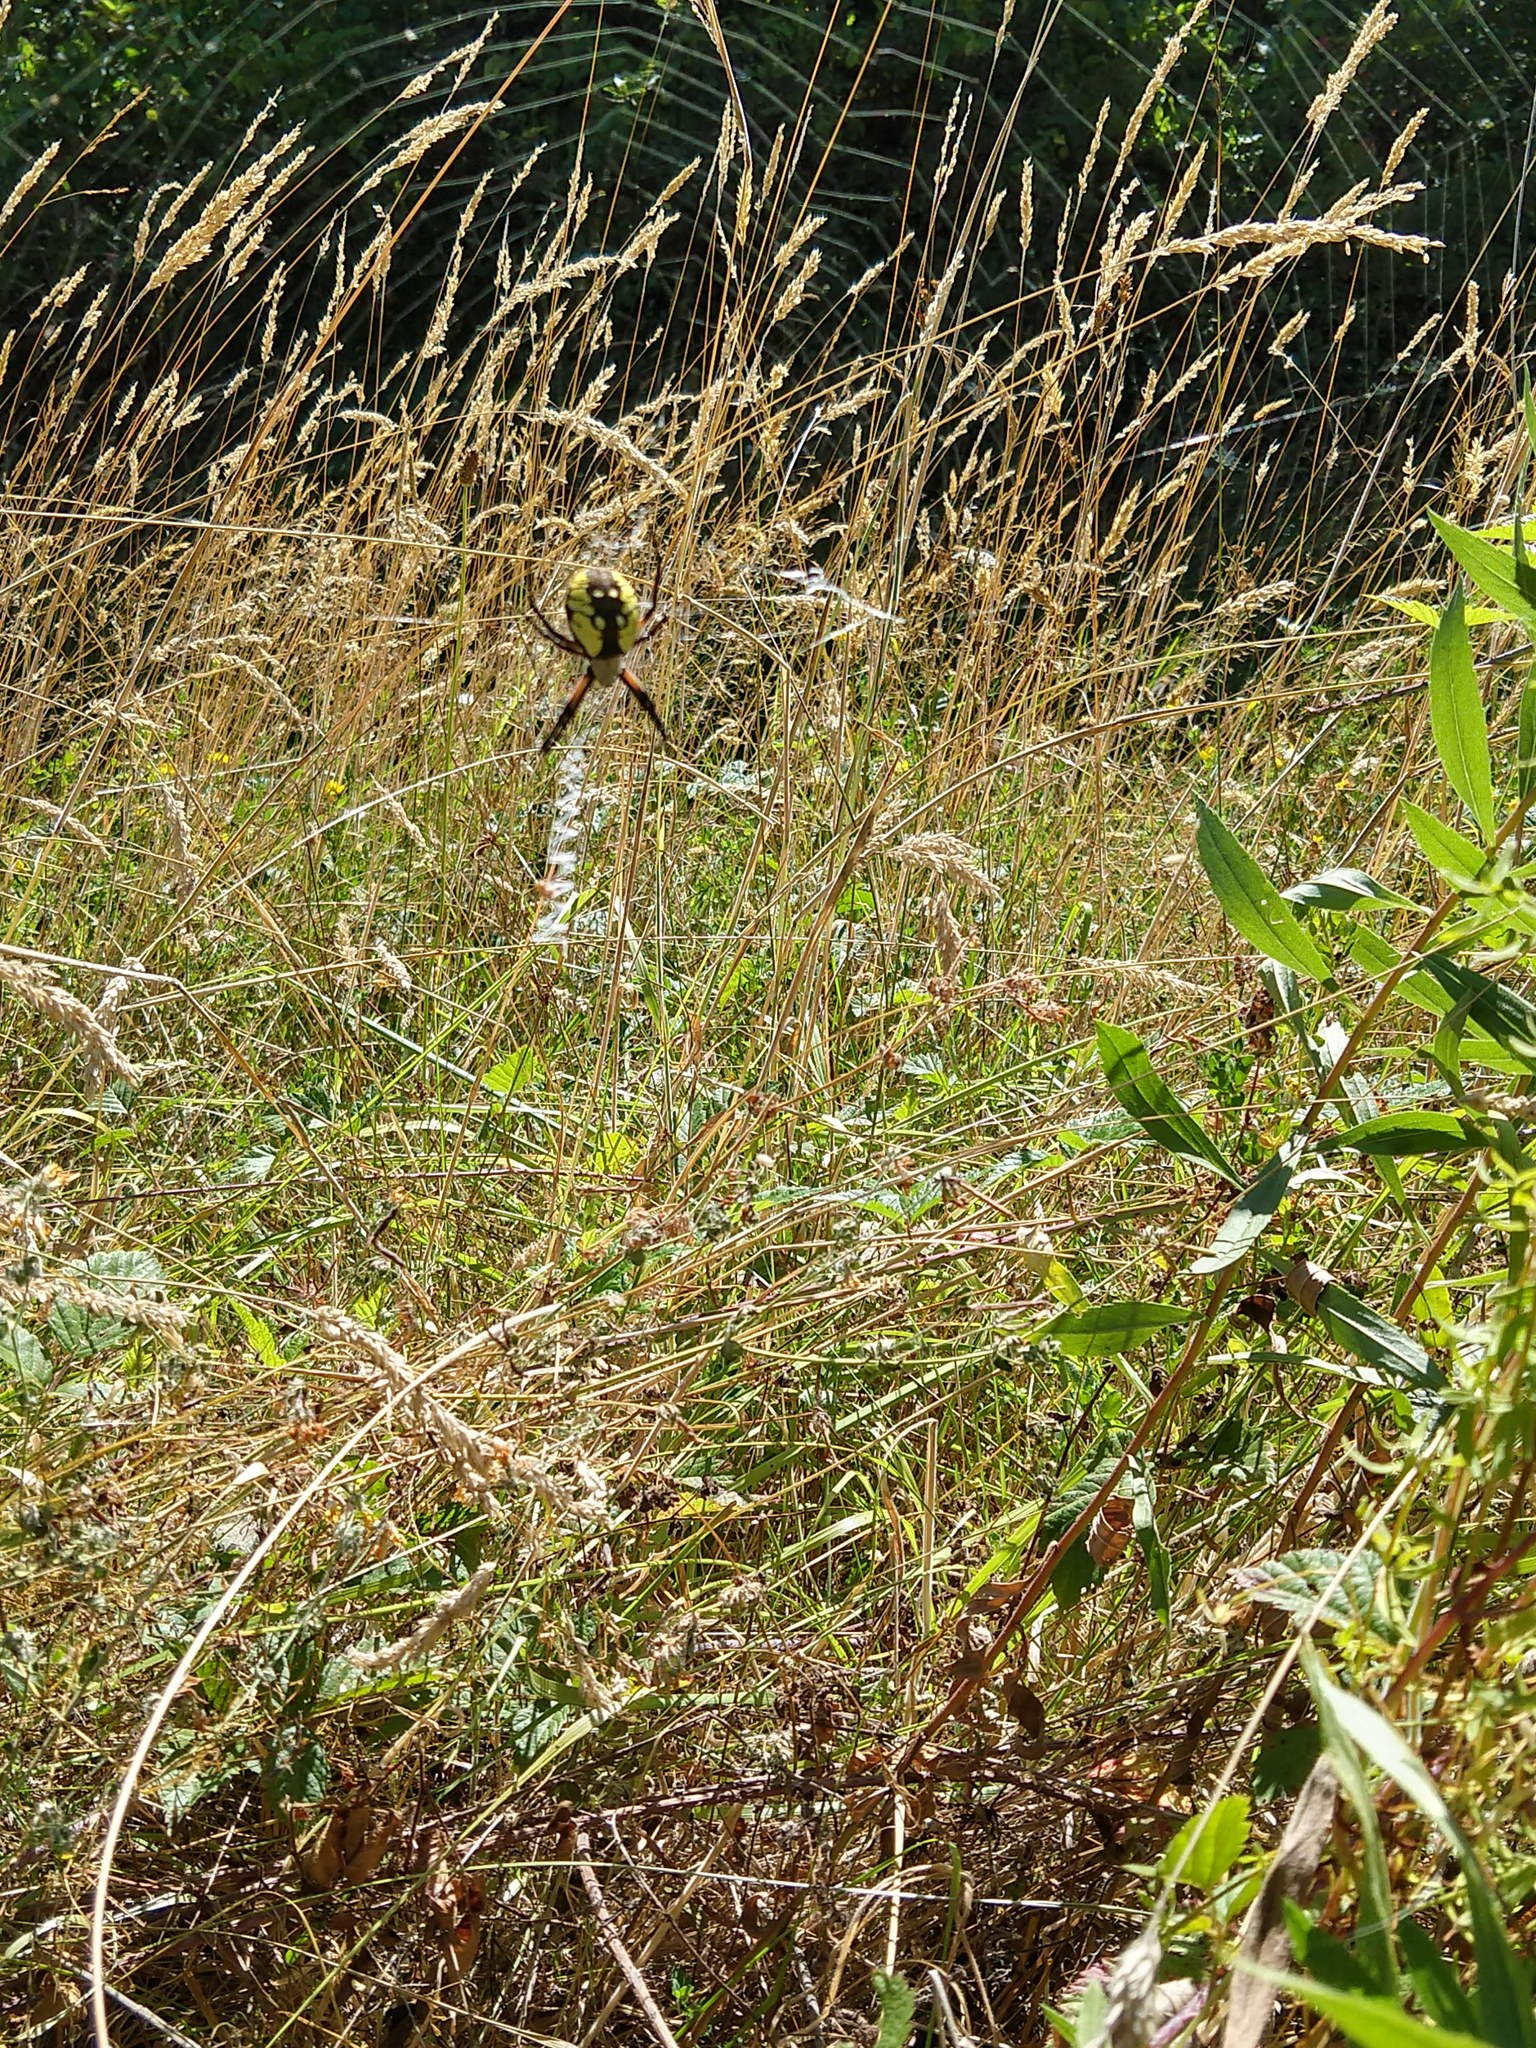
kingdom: Animalia
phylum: Arthropoda
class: Arachnida
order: Araneae
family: Araneidae
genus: Argiope
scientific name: Argiope aurantia
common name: Orb weavers
